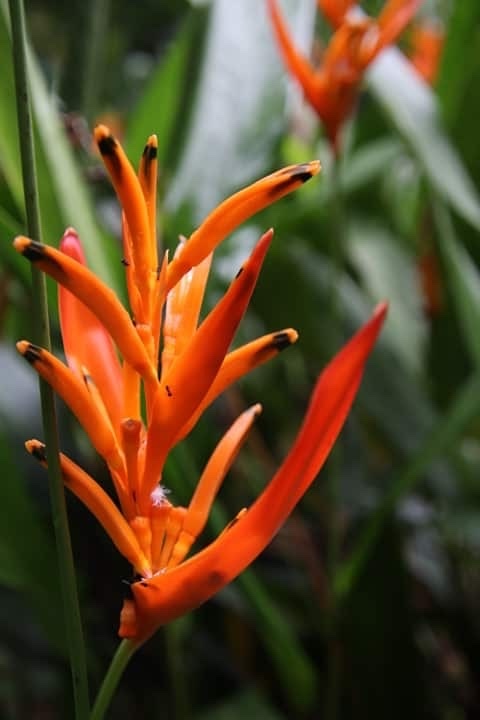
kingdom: Plantae
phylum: Tracheophyta
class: Liliopsida
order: Zingiberales
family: Heliconiaceae
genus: Heliconia
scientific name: Heliconia psittacorum
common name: Parrot's-flower
